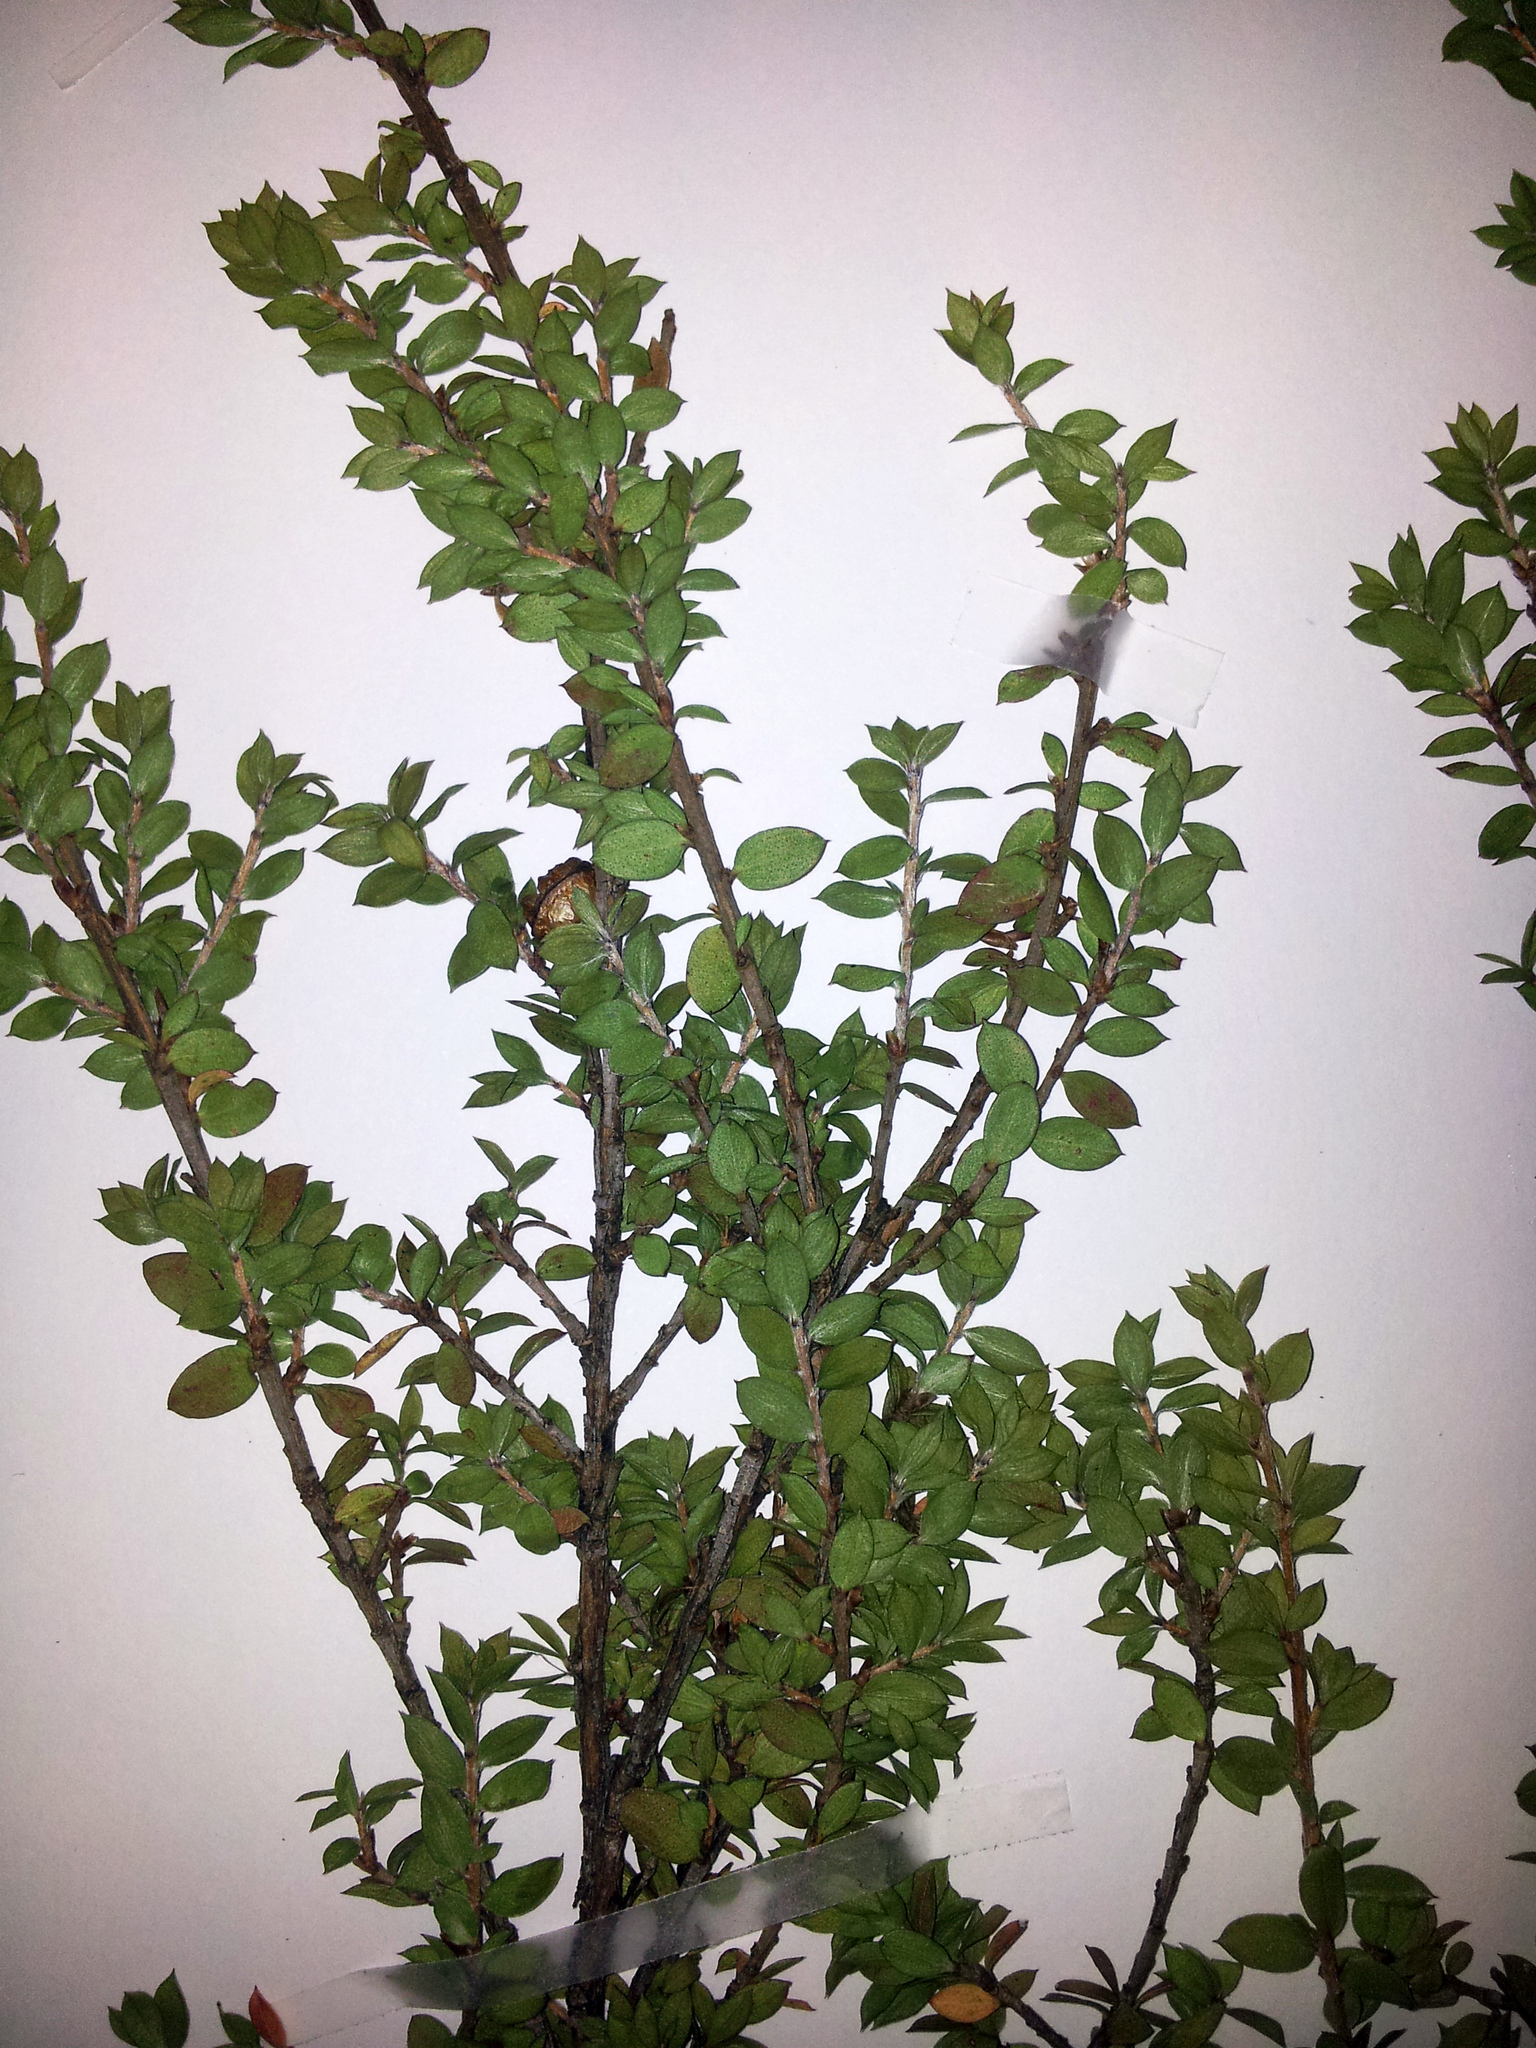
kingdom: Plantae
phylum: Tracheophyta
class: Magnoliopsida
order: Myrtales
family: Myrtaceae
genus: Leptospermum
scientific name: Leptospermum scoparium
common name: Broom tea-tree
